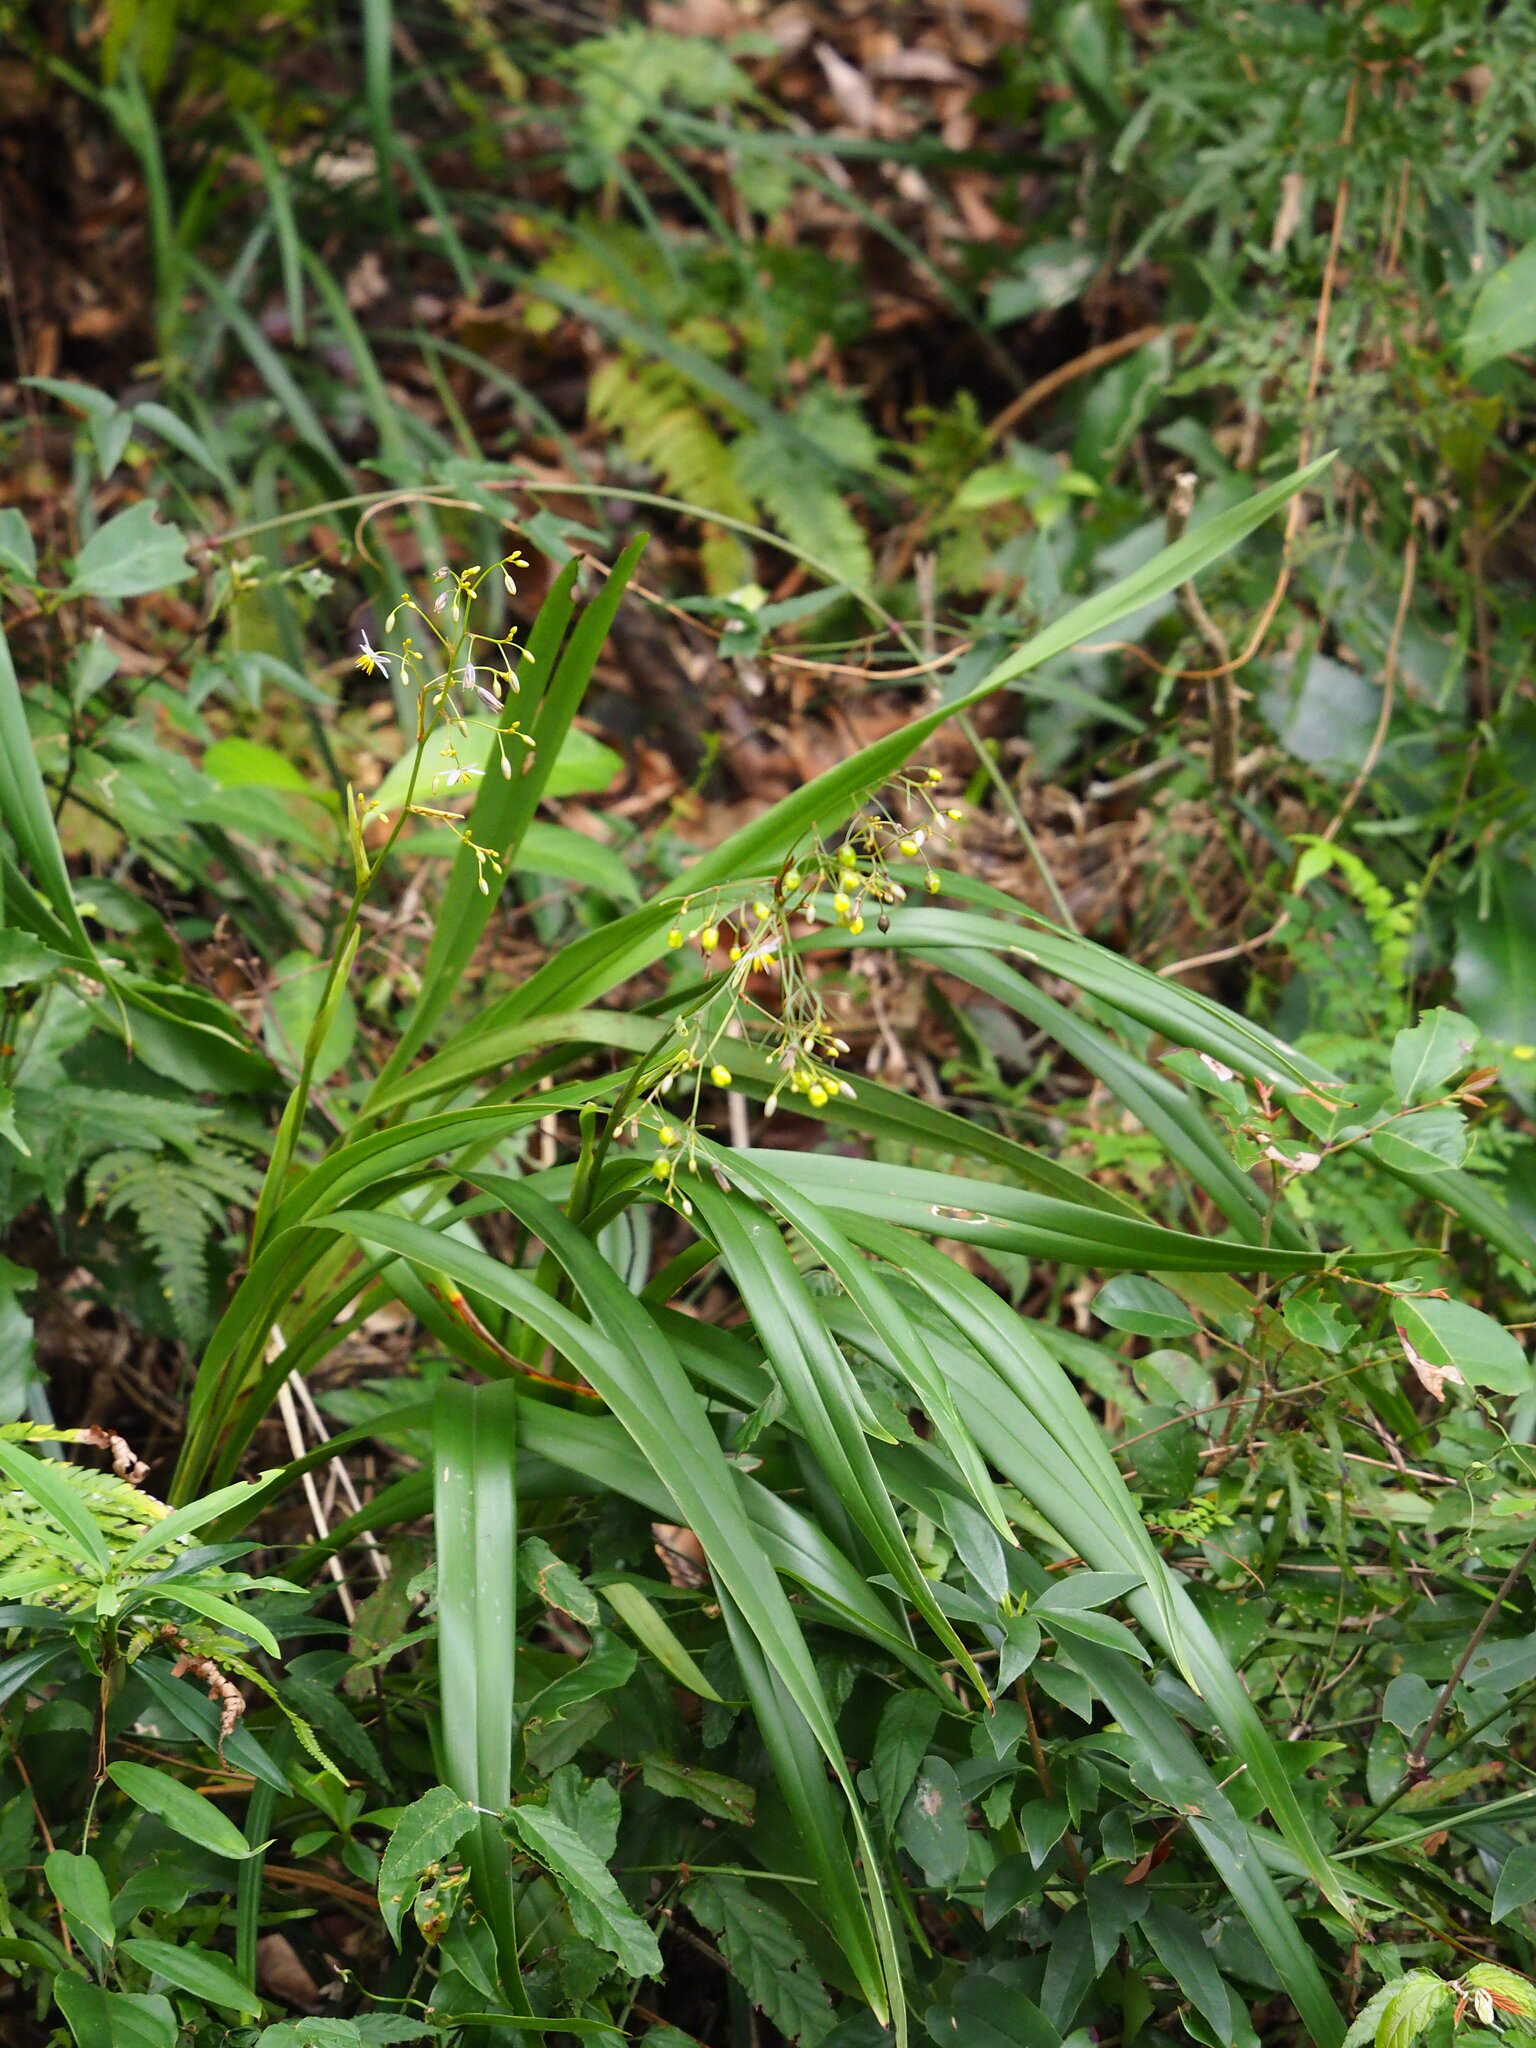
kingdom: Plantae
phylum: Tracheophyta
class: Liliopsida
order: Asparagales
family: Asphodelaceae
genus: Dianella
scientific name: Dianella ensifolia
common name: New zealand lilyplant
